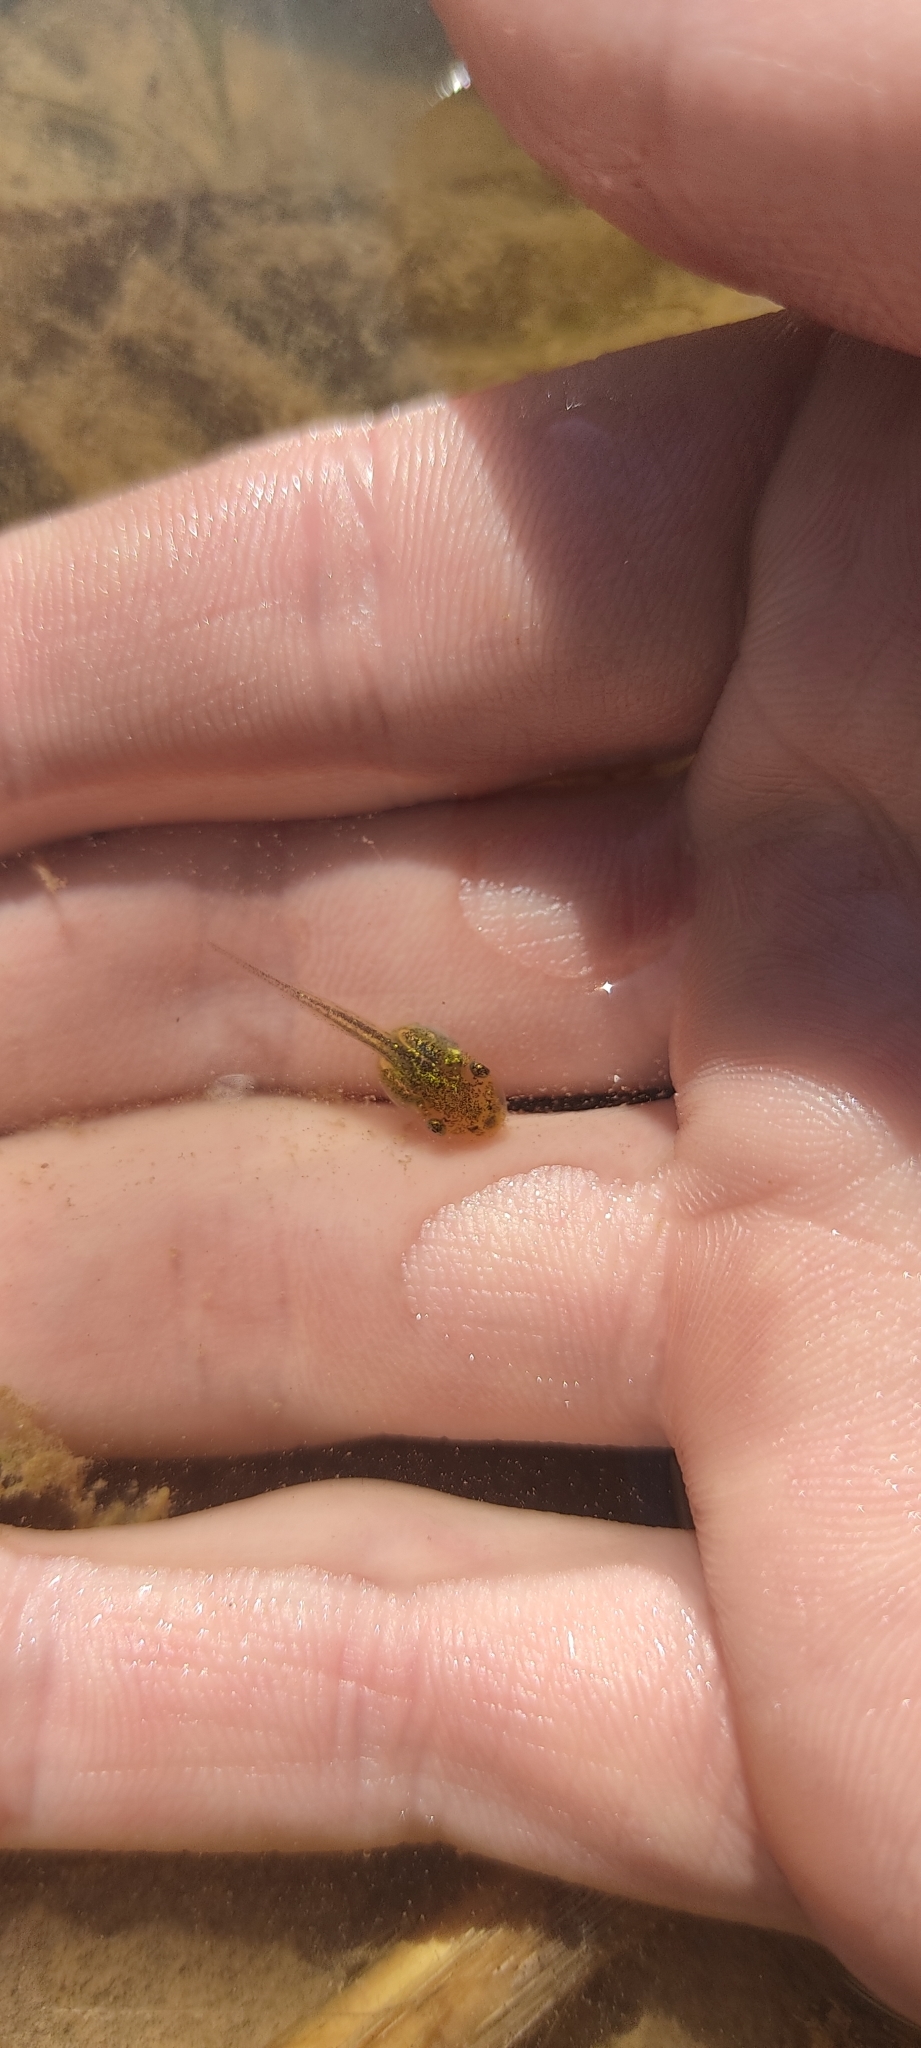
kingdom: Animalia
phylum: Chordata
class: Amphibia
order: Anura
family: Hylidae
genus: Hyla
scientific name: Hyla meridionalis
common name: Stripeless tree frog
